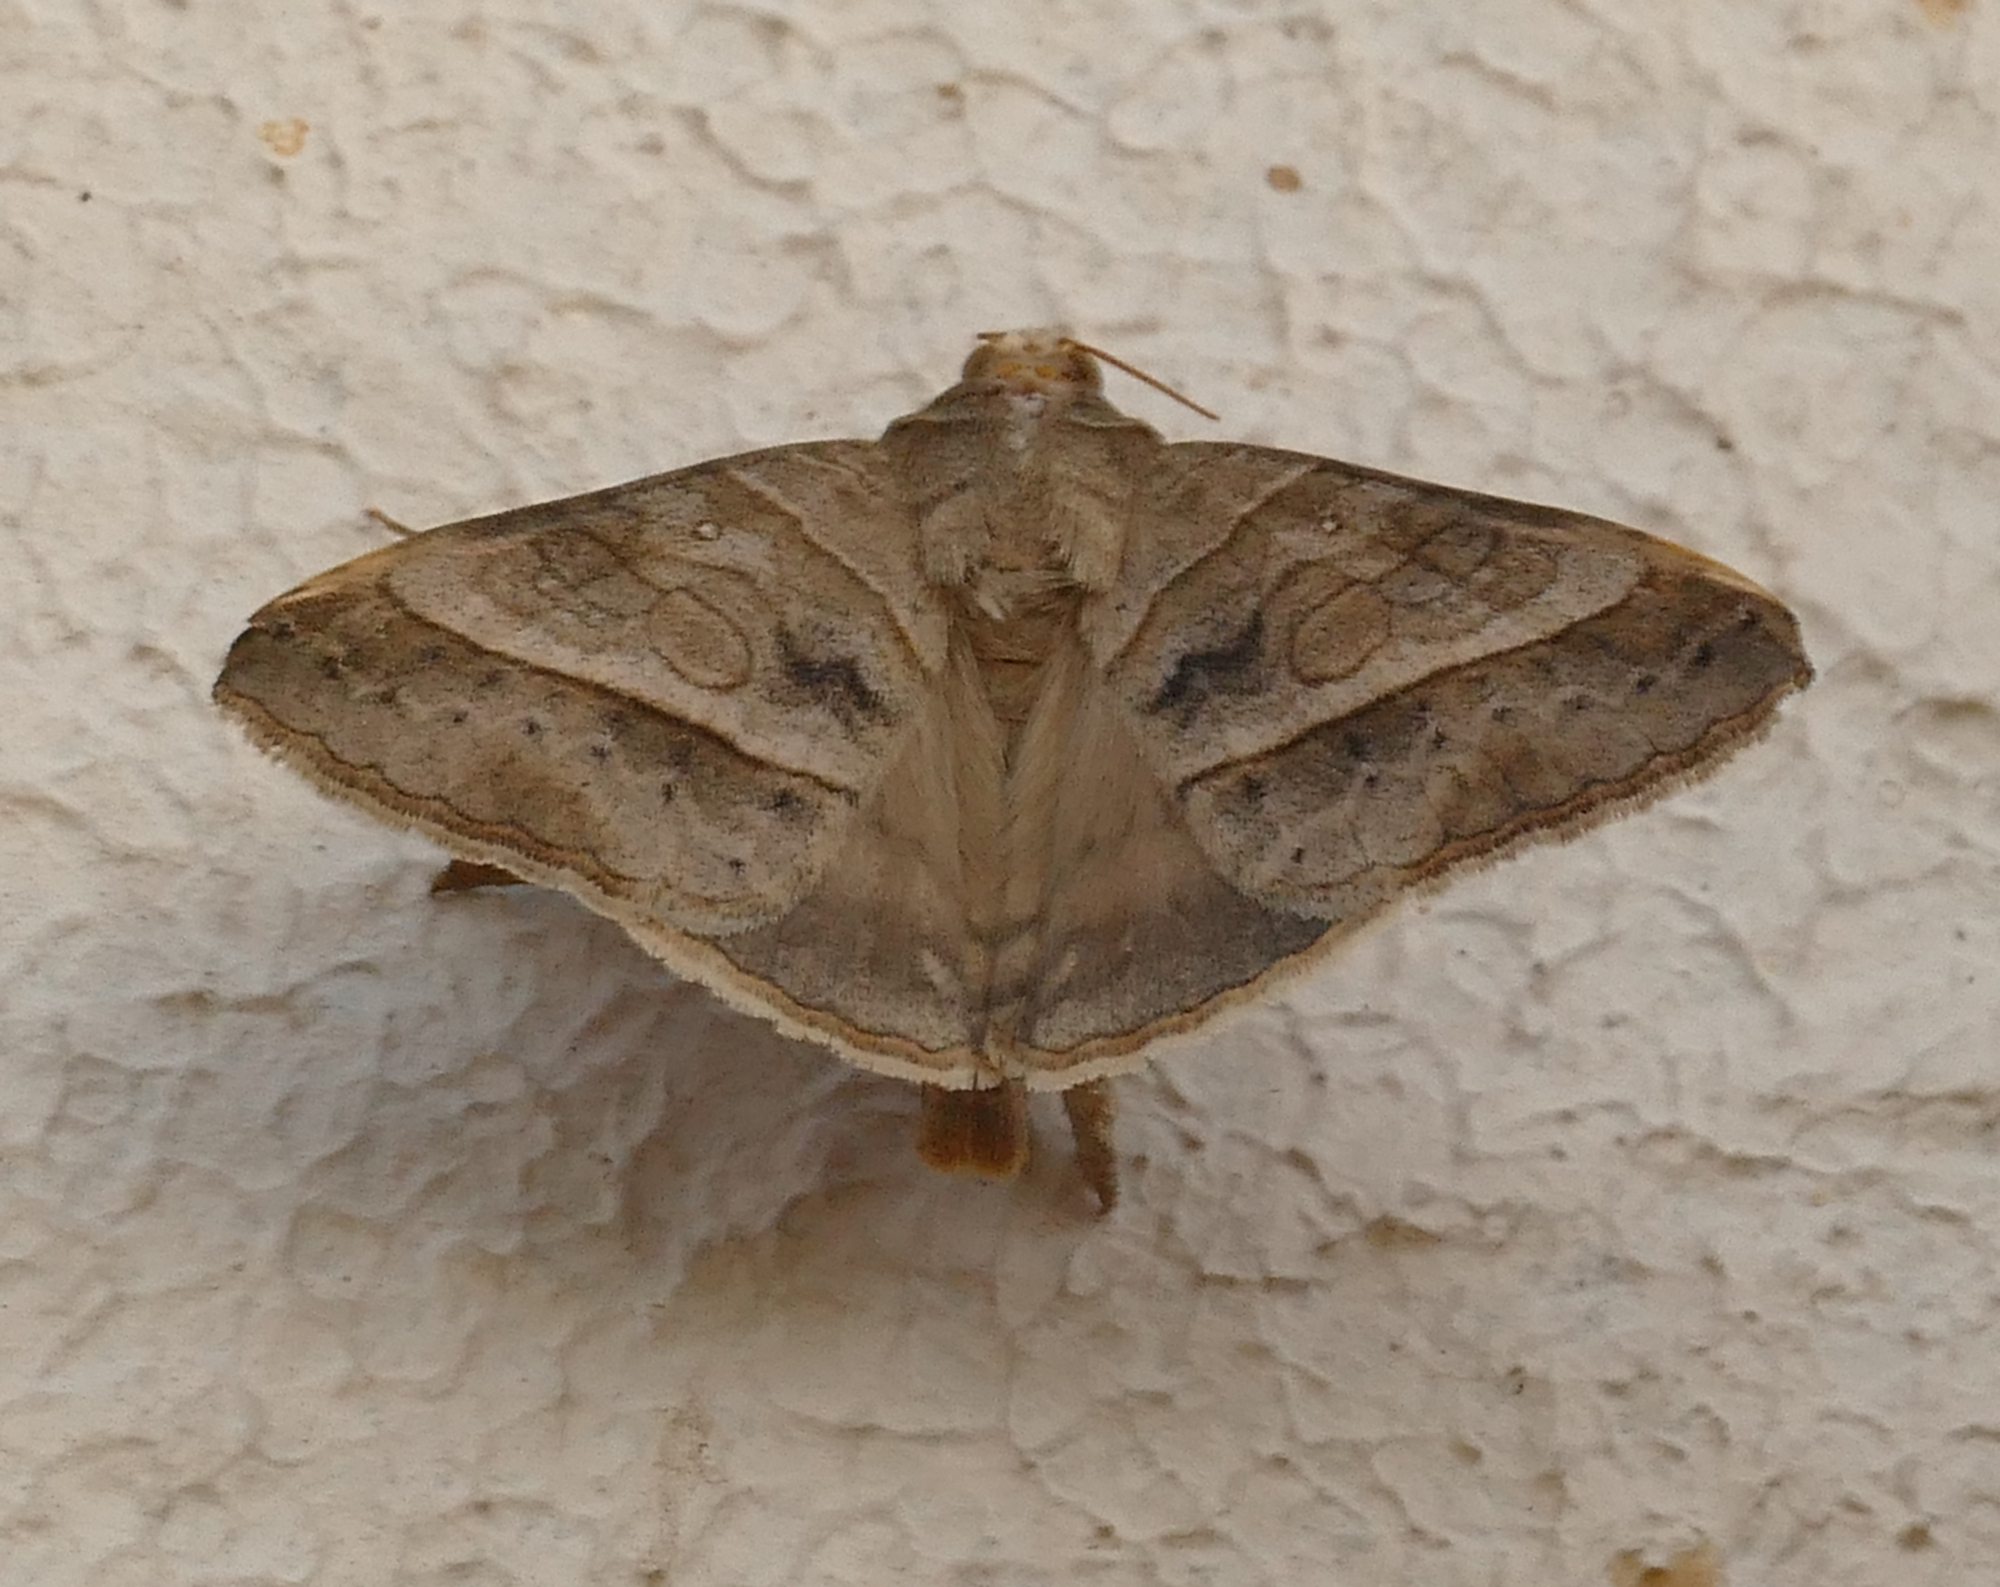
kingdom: Animalia
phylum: Arthropoda
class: Insecta
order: Lepidoptera
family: Erebidae
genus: Mocis
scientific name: Mocis latipes
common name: Striped grass looper
